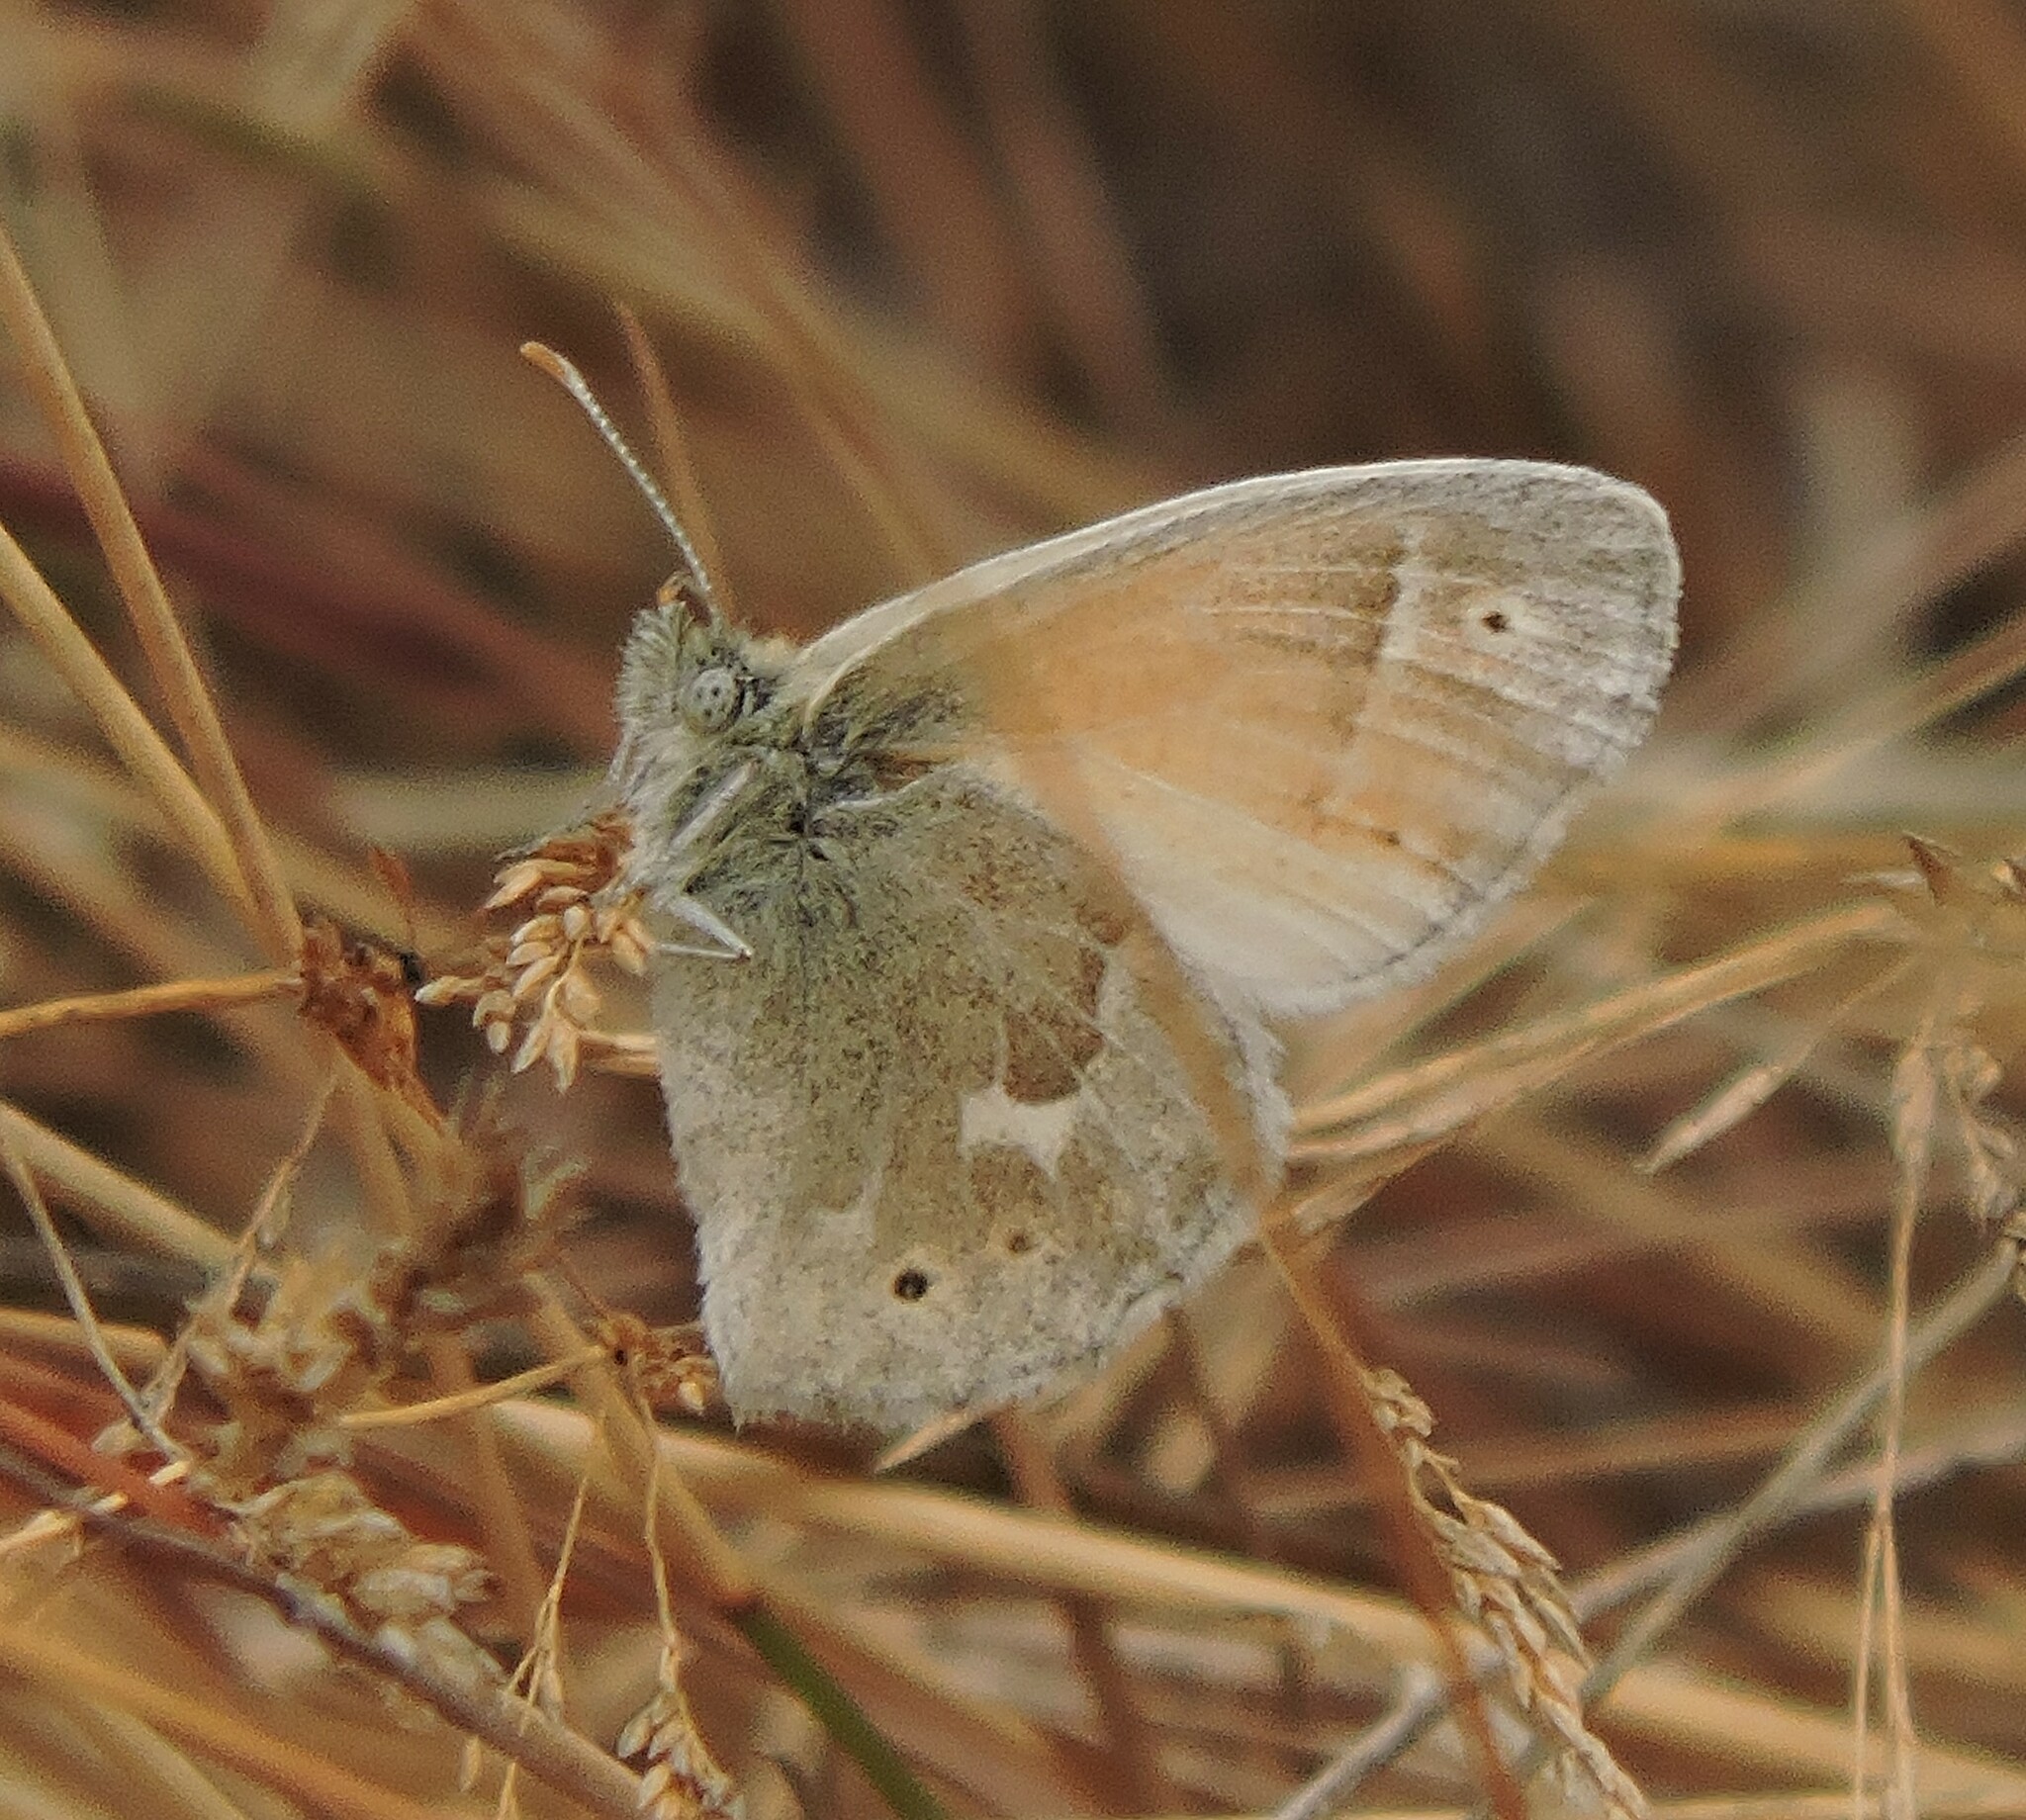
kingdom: Animalia
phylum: Arthropoda
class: Insecta
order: Lepidoptera
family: Nymphalidae
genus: Coenonympha
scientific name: Coenonympha california
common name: Common ringlet
